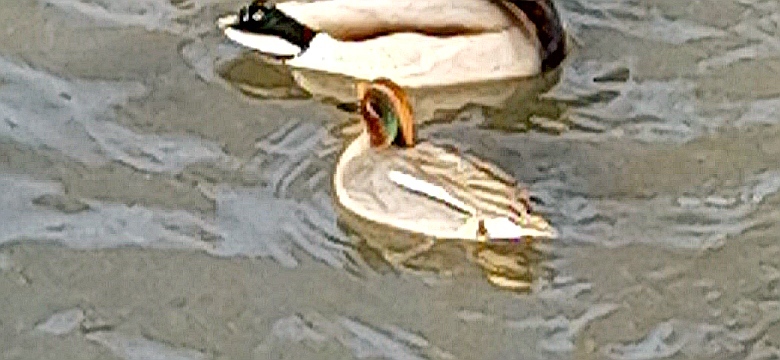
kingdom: Animalia
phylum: Chordata
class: Aves
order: Anseriformes
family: Anatidae
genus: Anas
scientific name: Anas crecca
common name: Eurasian teal
